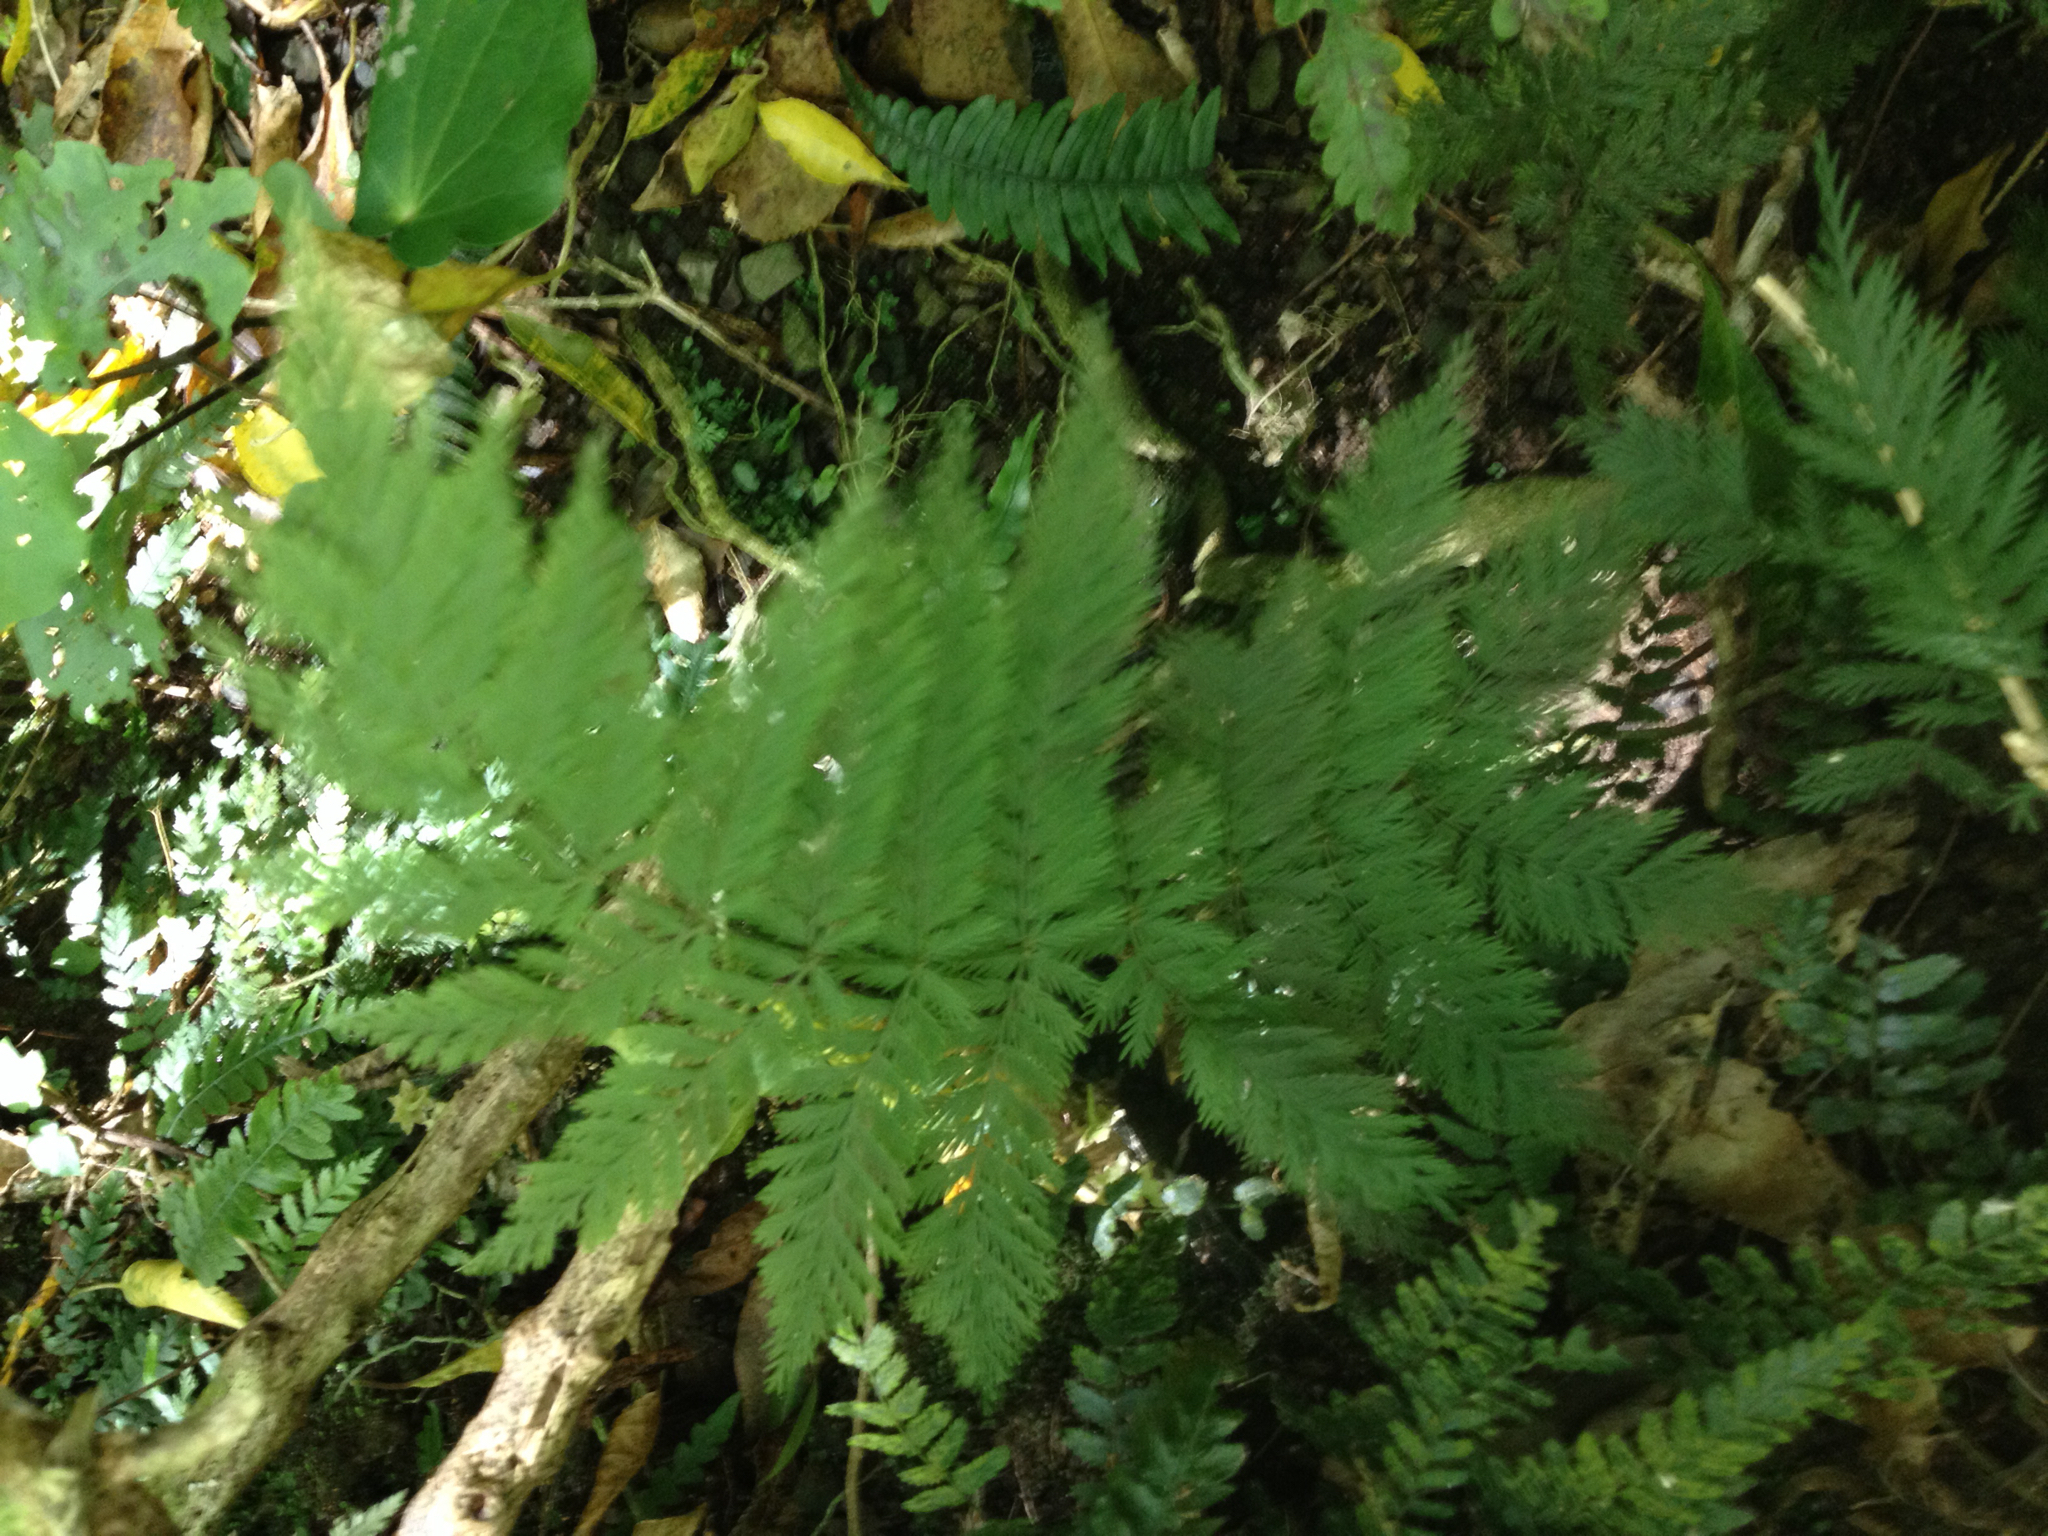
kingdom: Plantae
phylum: Tracheophyta
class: Polypodiopsida
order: Osmundales
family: Osmundaceae
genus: Leptopteris
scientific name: Leptopteris hymenophylloides
